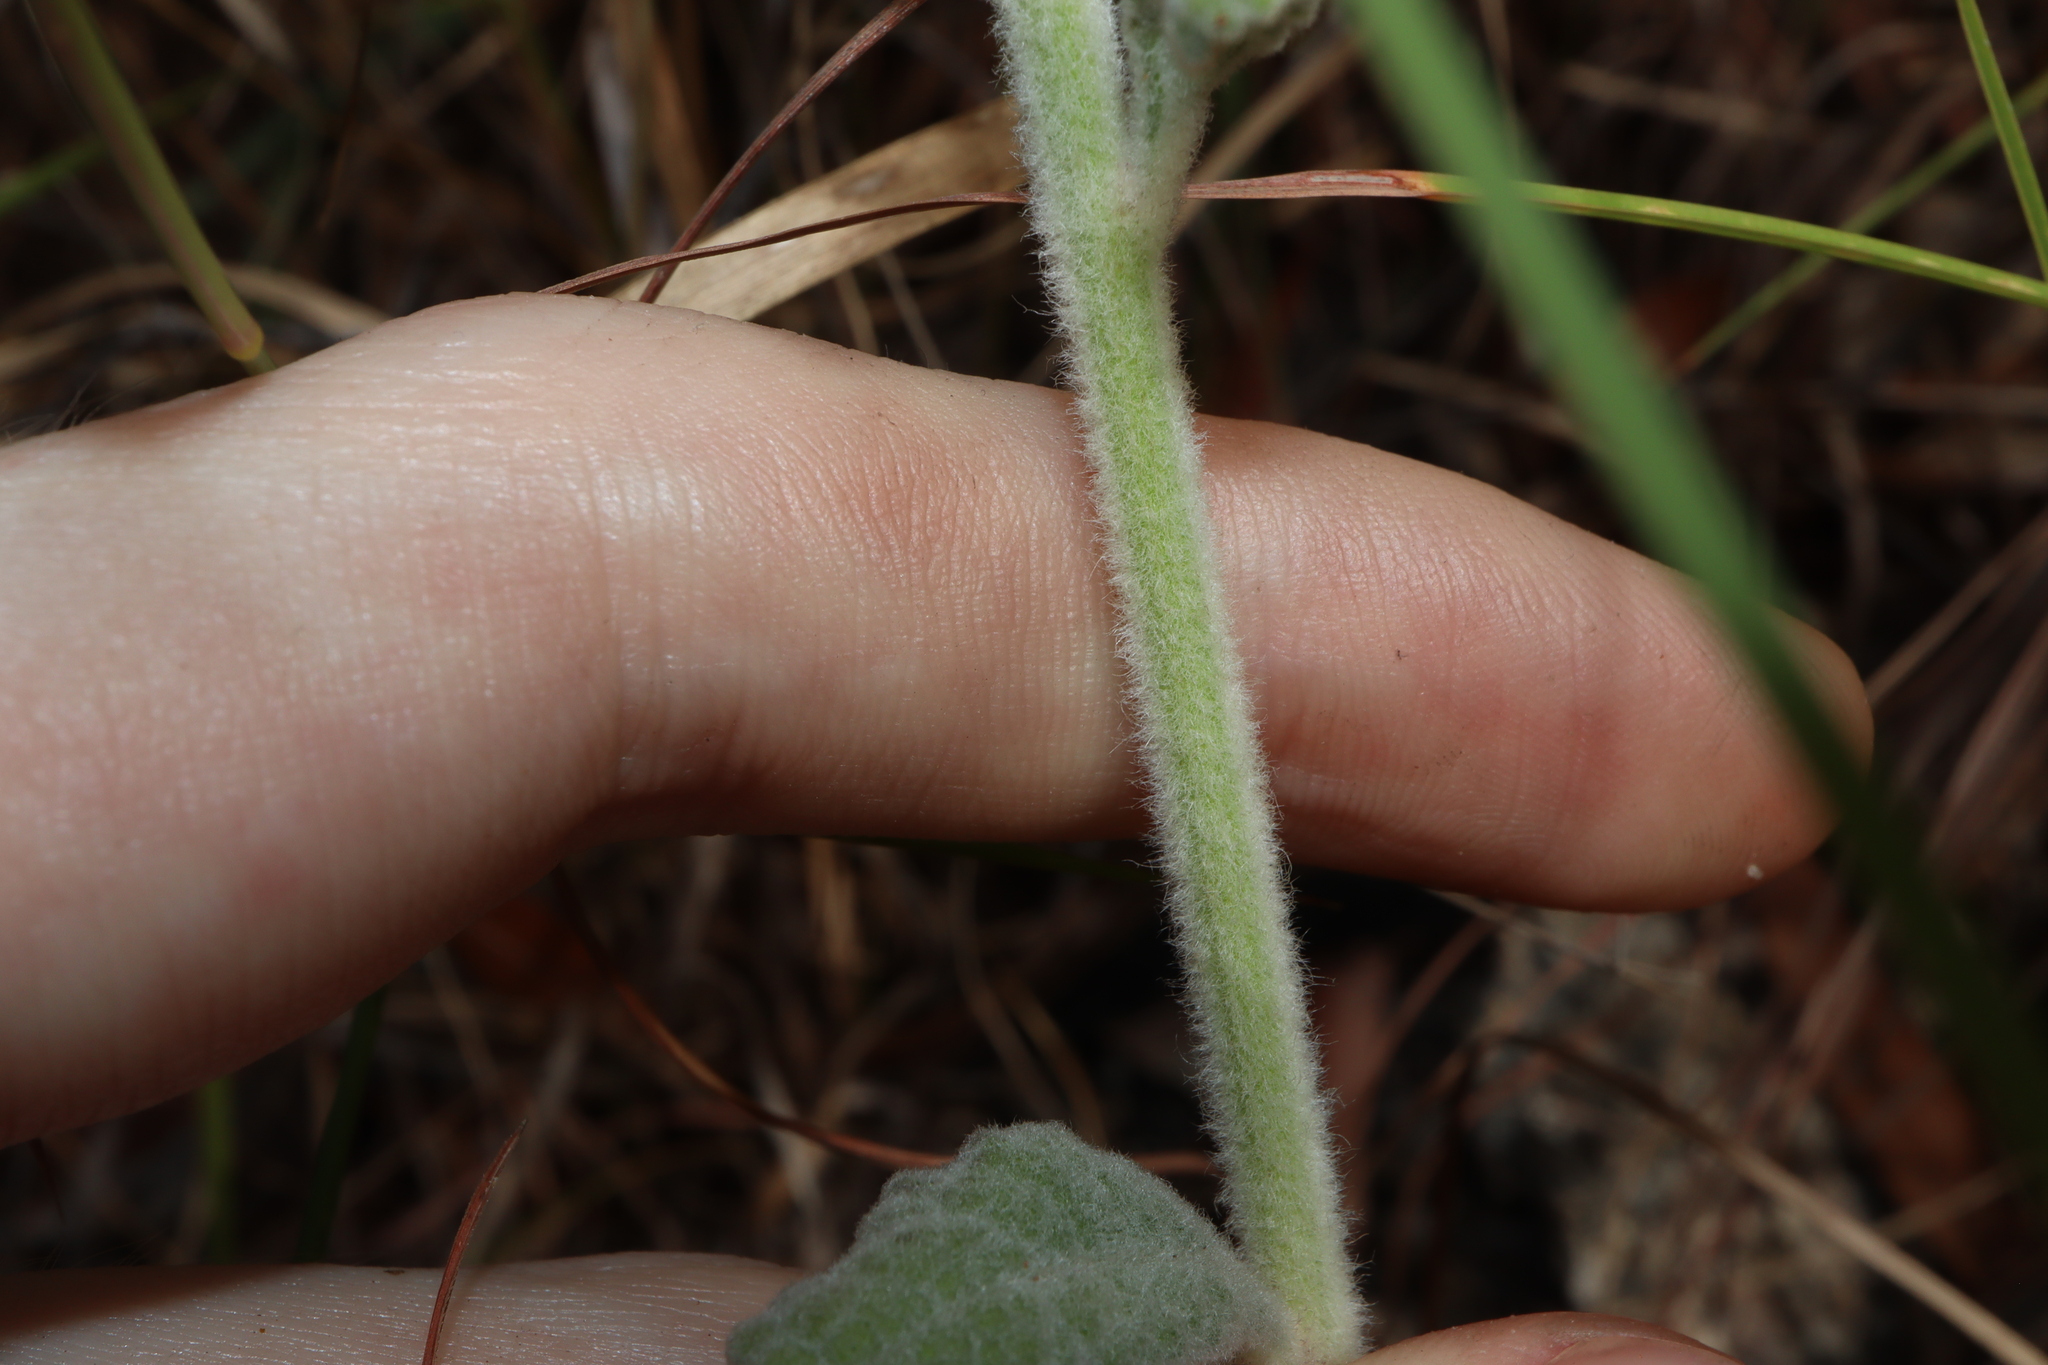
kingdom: Plantae
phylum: Tracheophyta
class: Magnoliopsida
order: Asterales
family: Asteraceae
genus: Cyanthillium
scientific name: Cyanthillium cinereum
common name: Little ironweed
